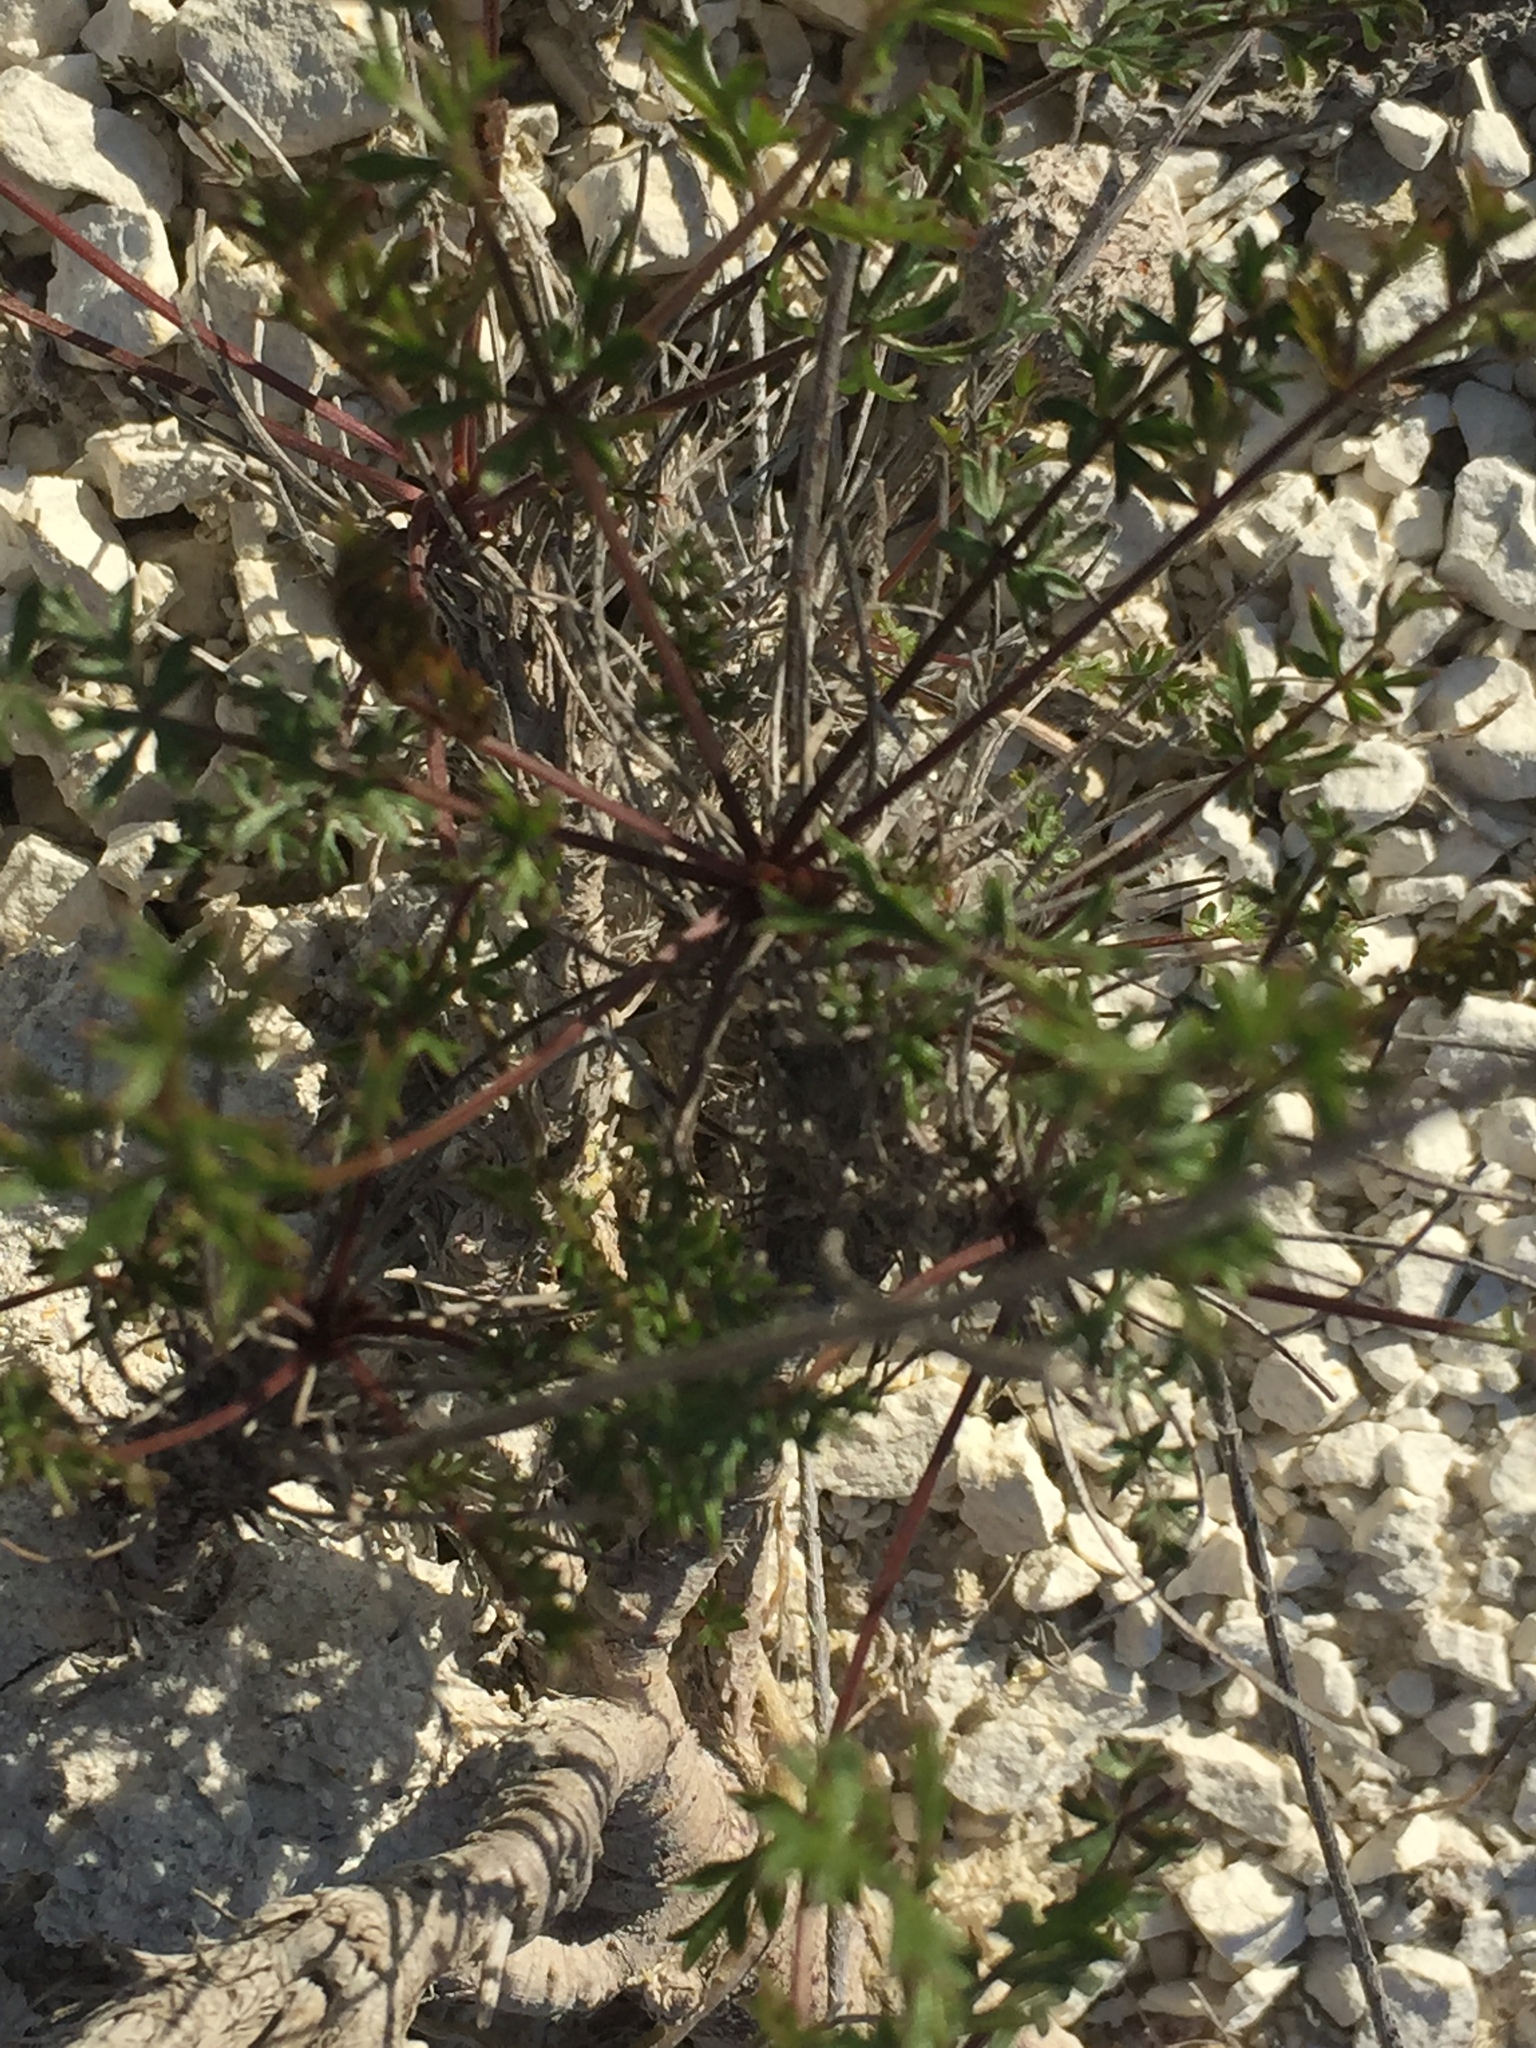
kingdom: Plantae
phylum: Tracheophyta
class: Magnoliopsida
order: Apiales
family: Apiaceae
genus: Pimpinella
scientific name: Pimpinella tragium
